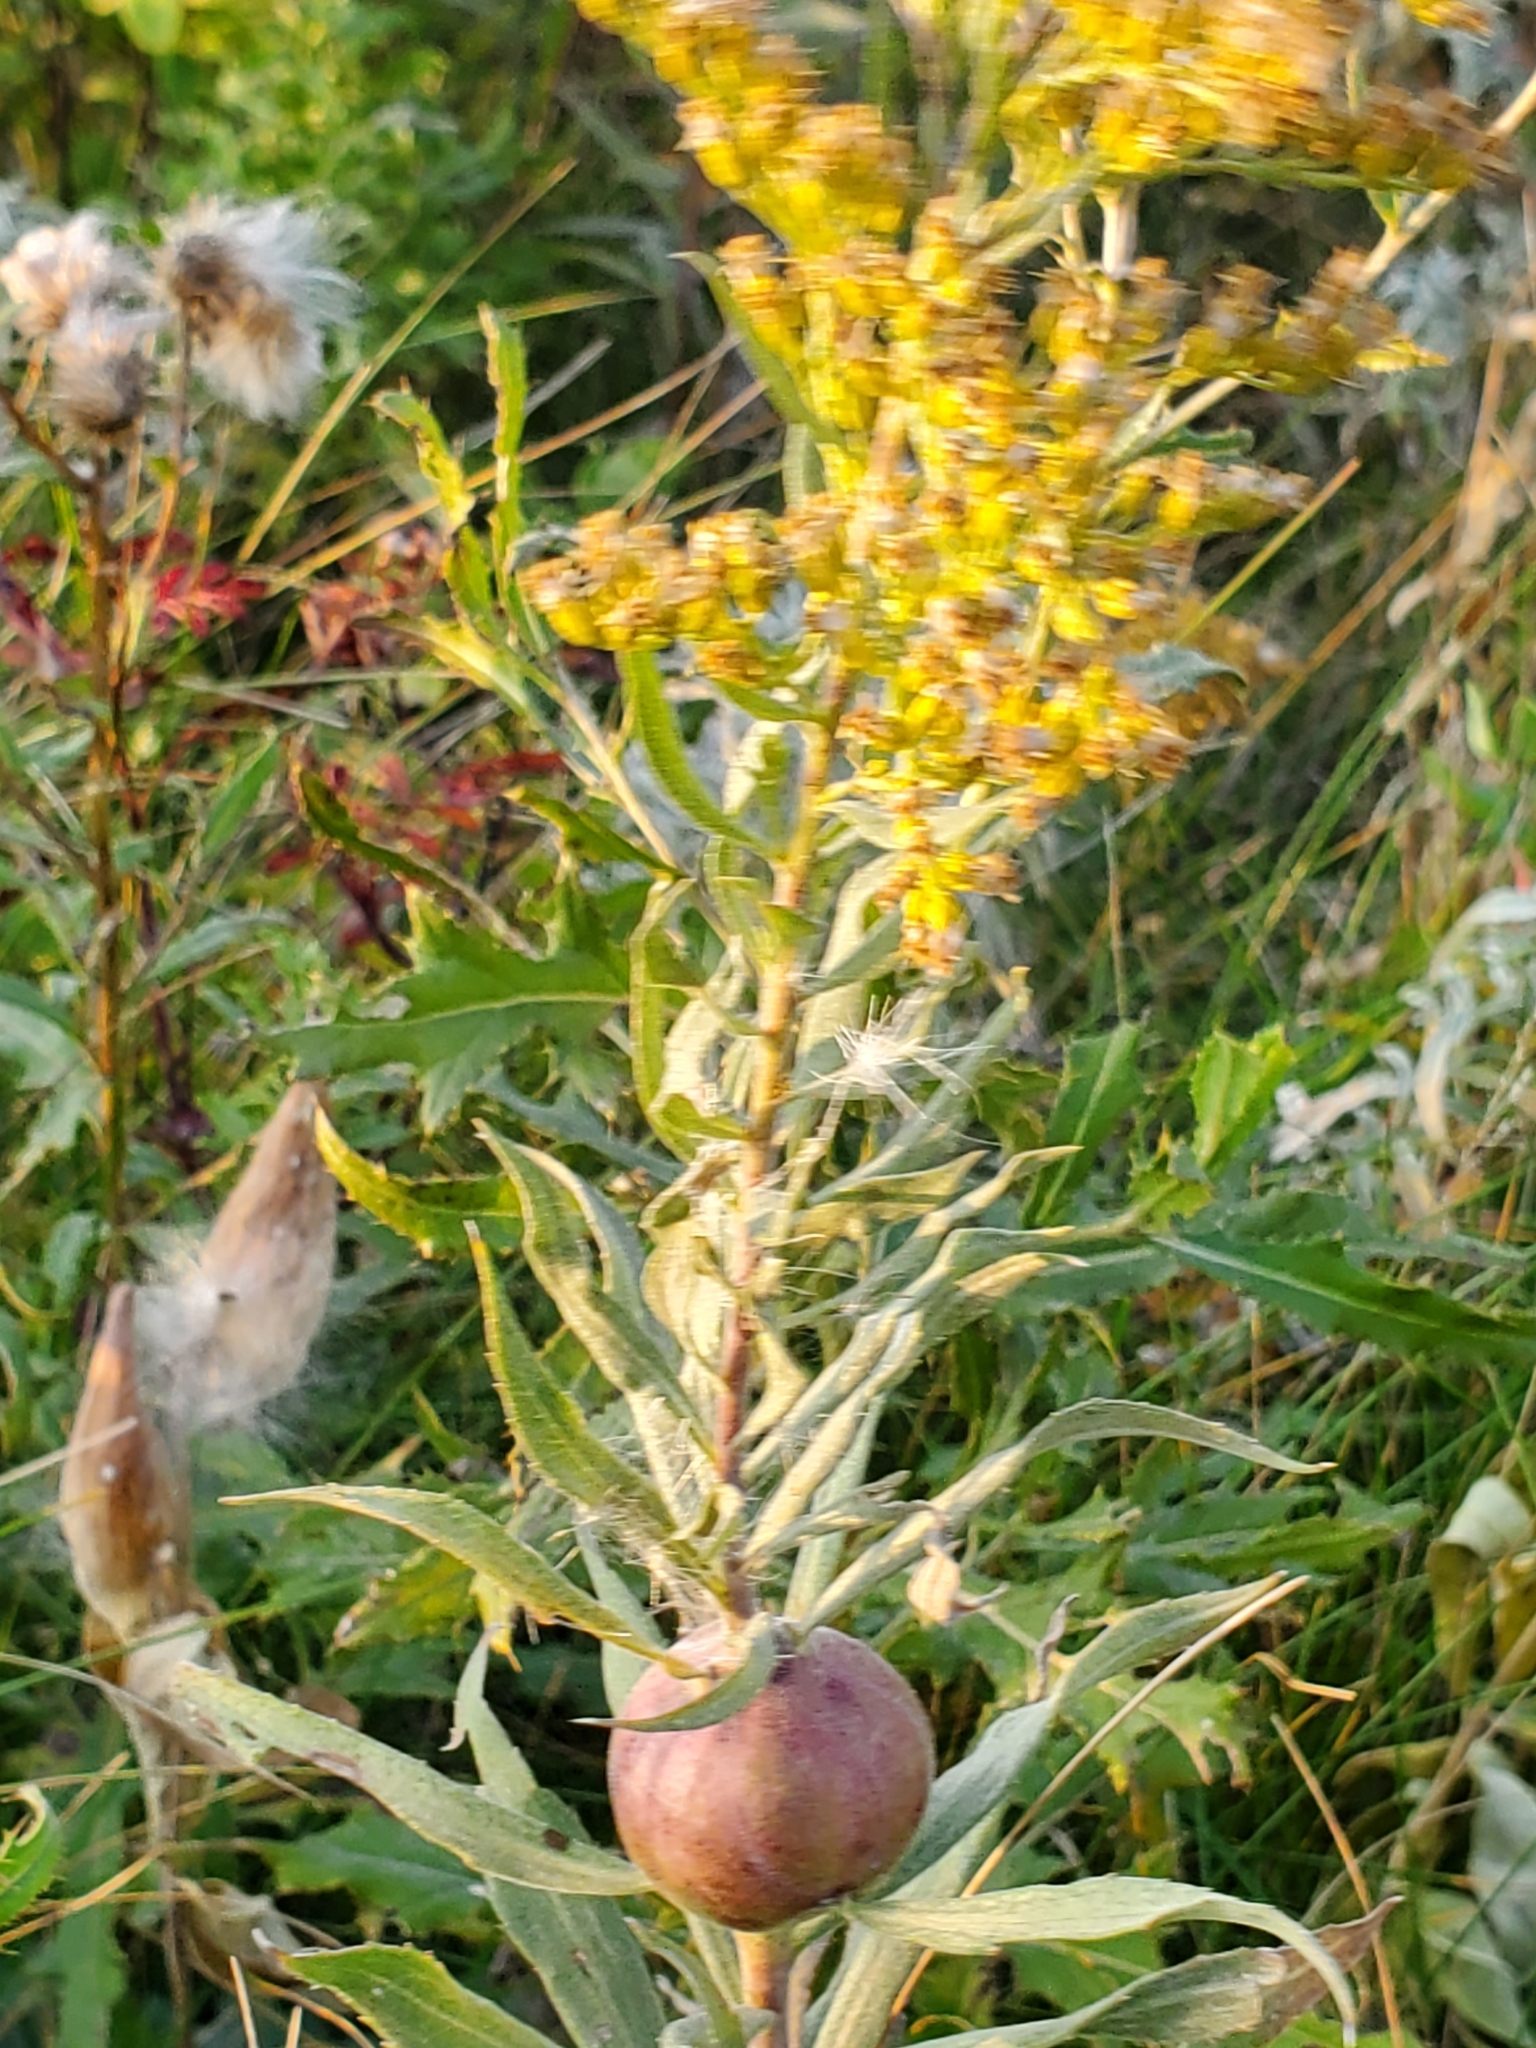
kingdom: Animalia
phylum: Arthropoda
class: Insecta
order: Diptera
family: Tephritidae
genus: Eurosta
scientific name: Eurosta solidaginis
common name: Goldenrod gall fly
